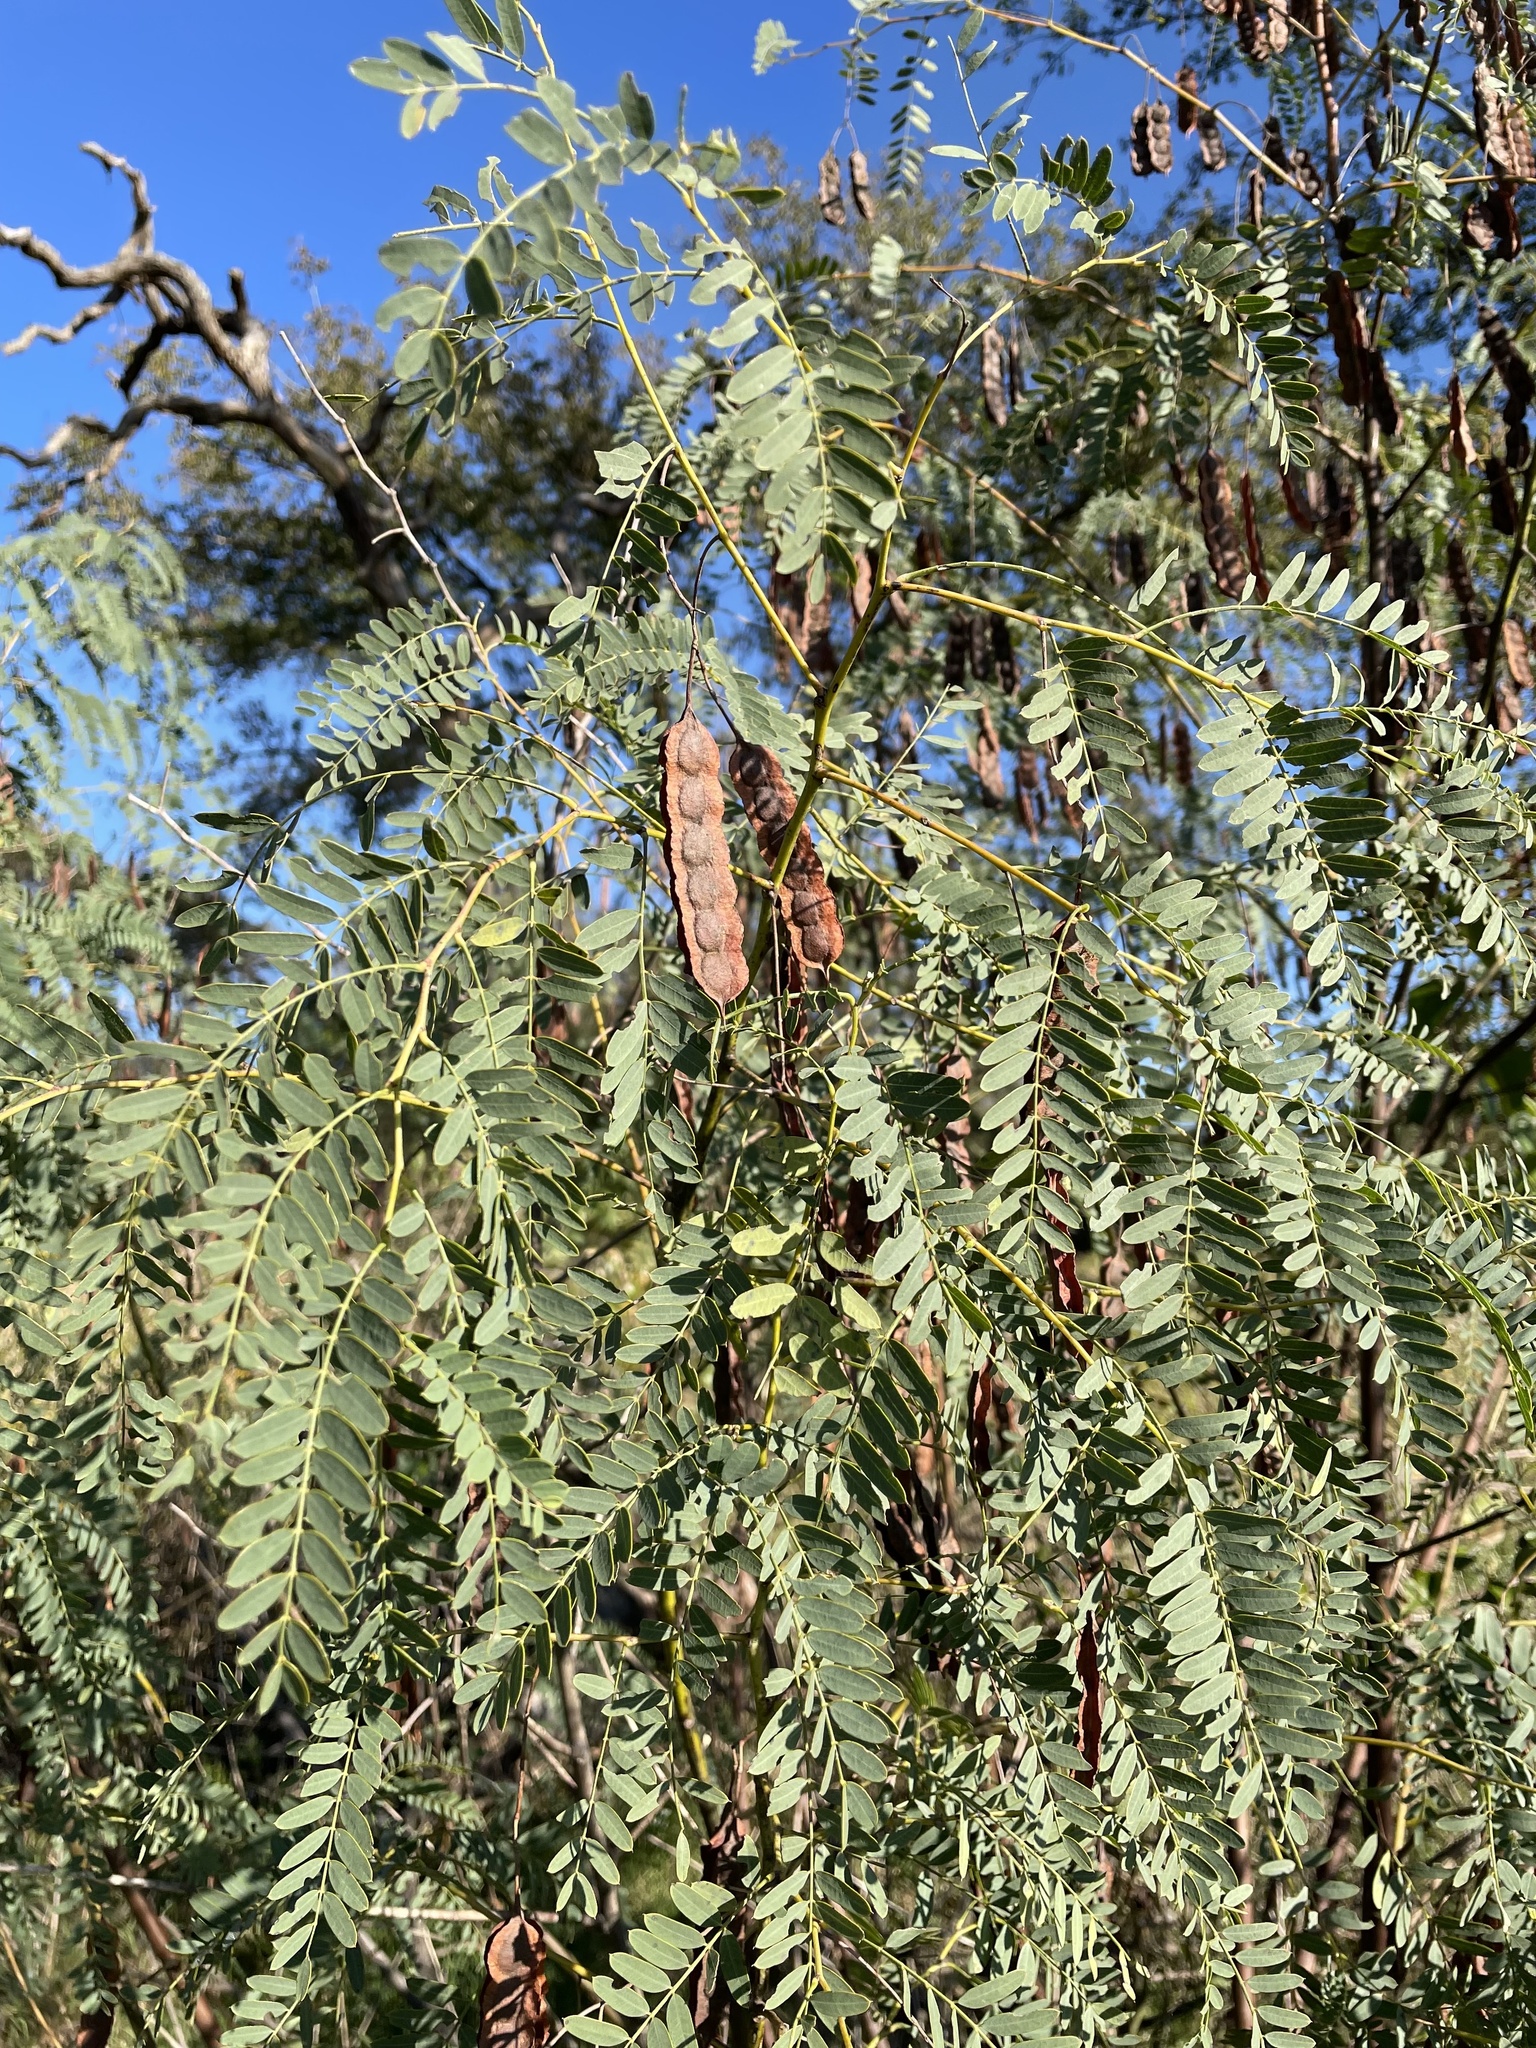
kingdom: Plantae
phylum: Tracheophyta
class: Magnoliopsida
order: Fabales
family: Fabaceae
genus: Sesbania
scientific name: Sesbania drummondii
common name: Poison-bean
